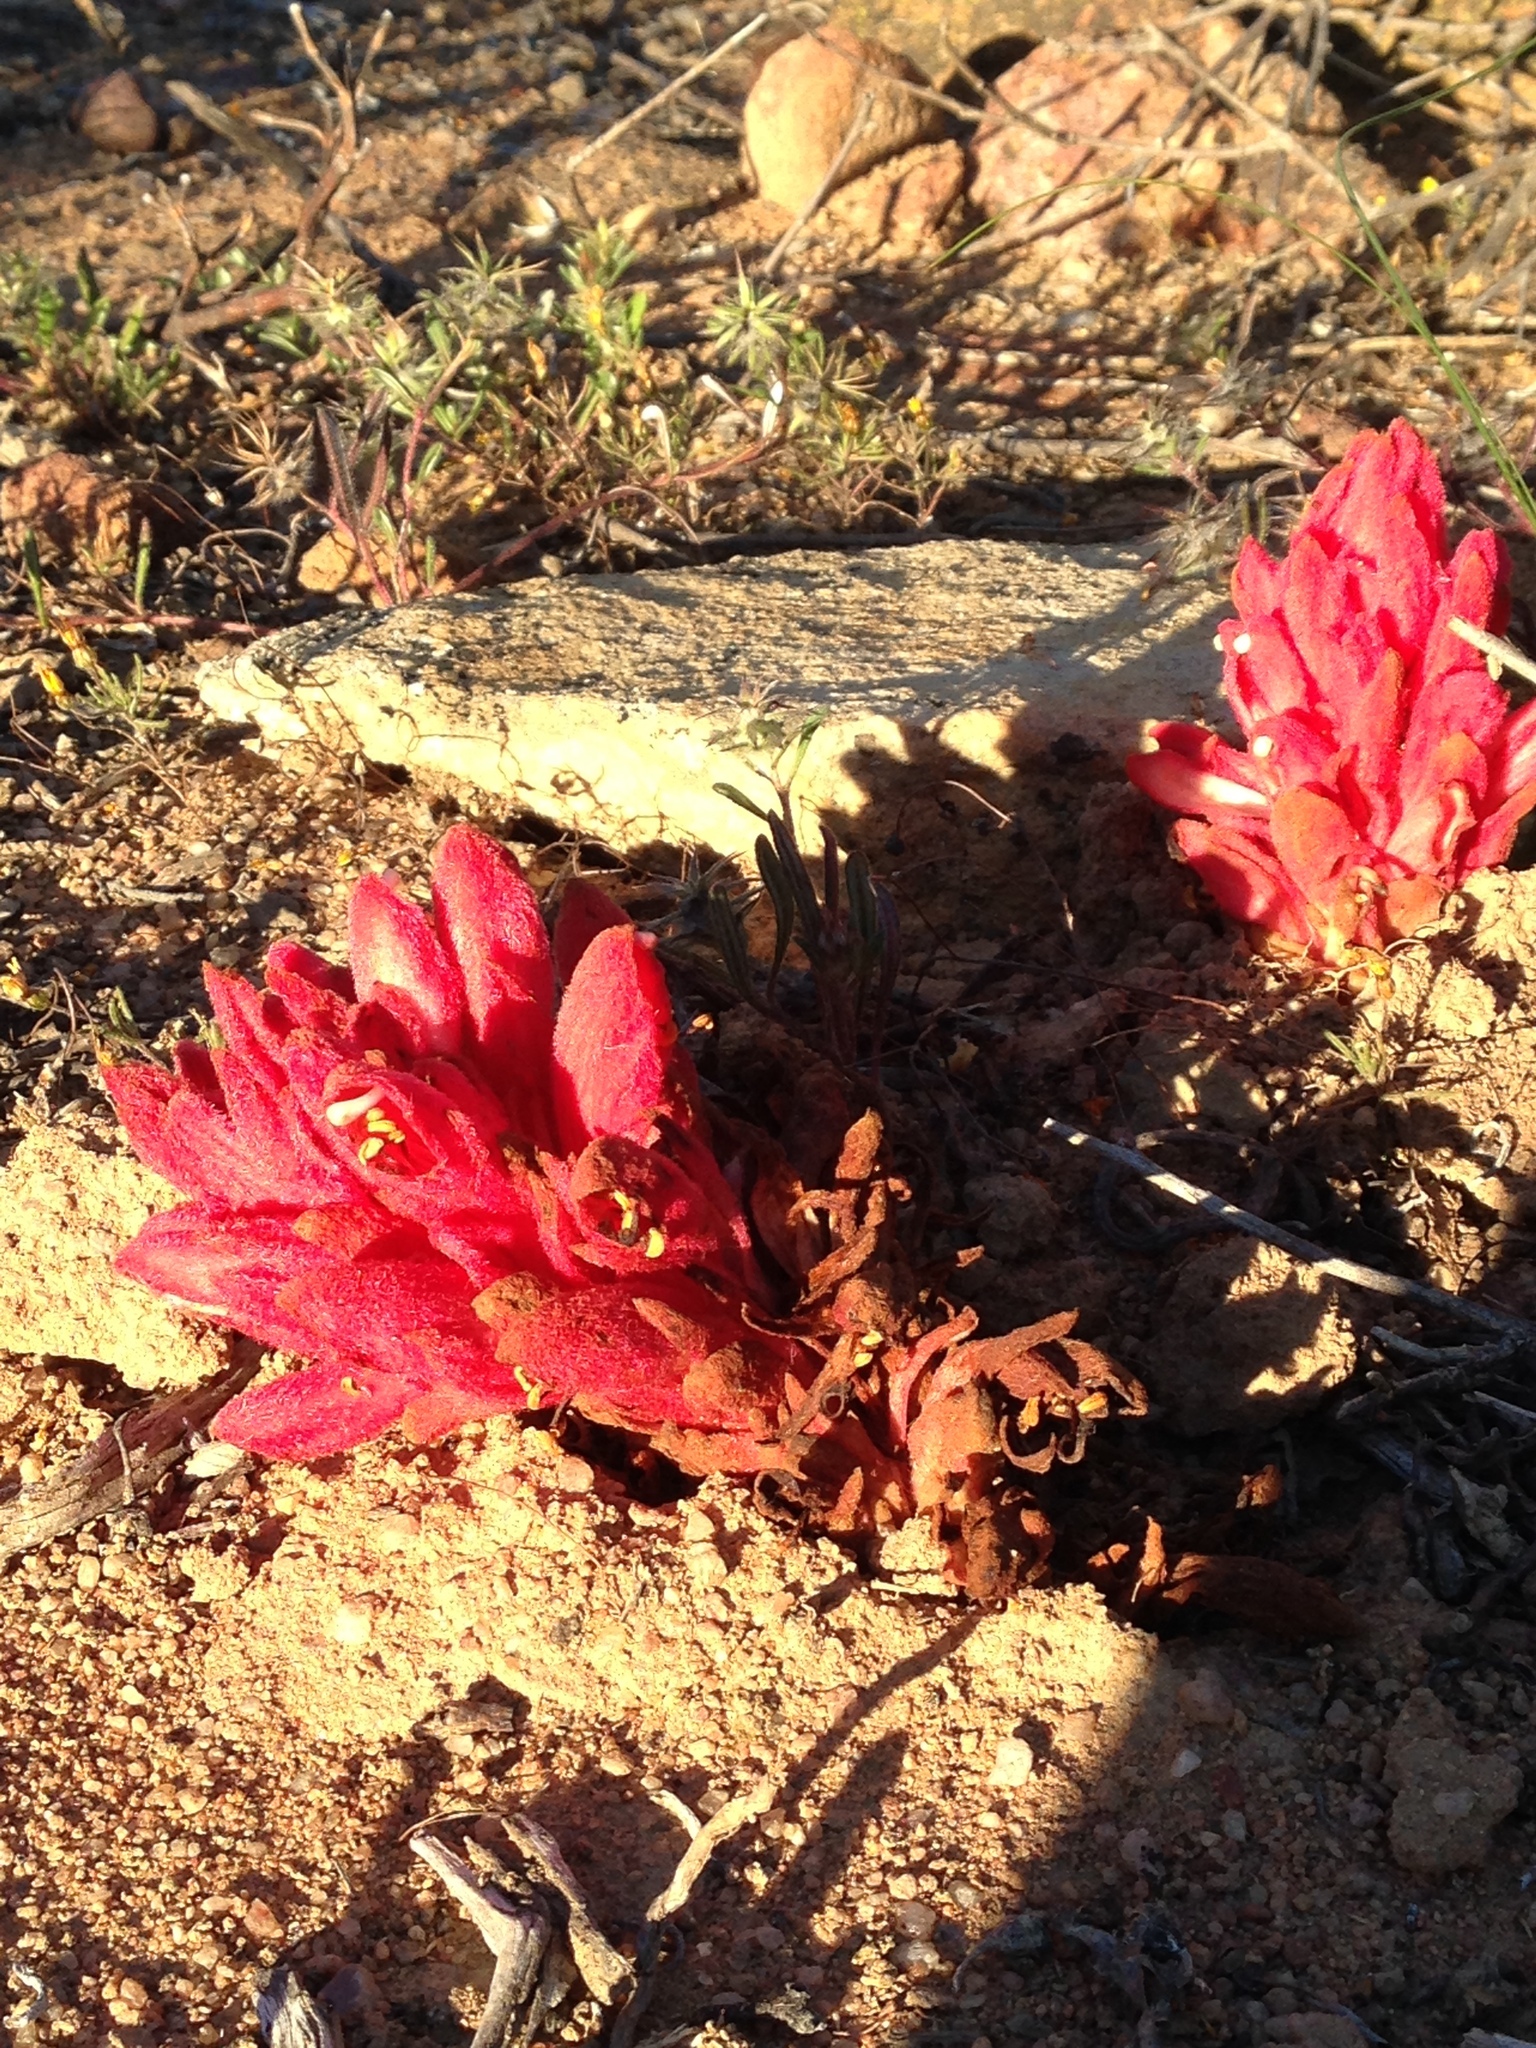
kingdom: Plantae
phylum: Tracheophyta
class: Magnoliopsida
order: Lamiales
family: Orobanchaceae
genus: Hyobanche
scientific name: Hyobanche sanguinea
